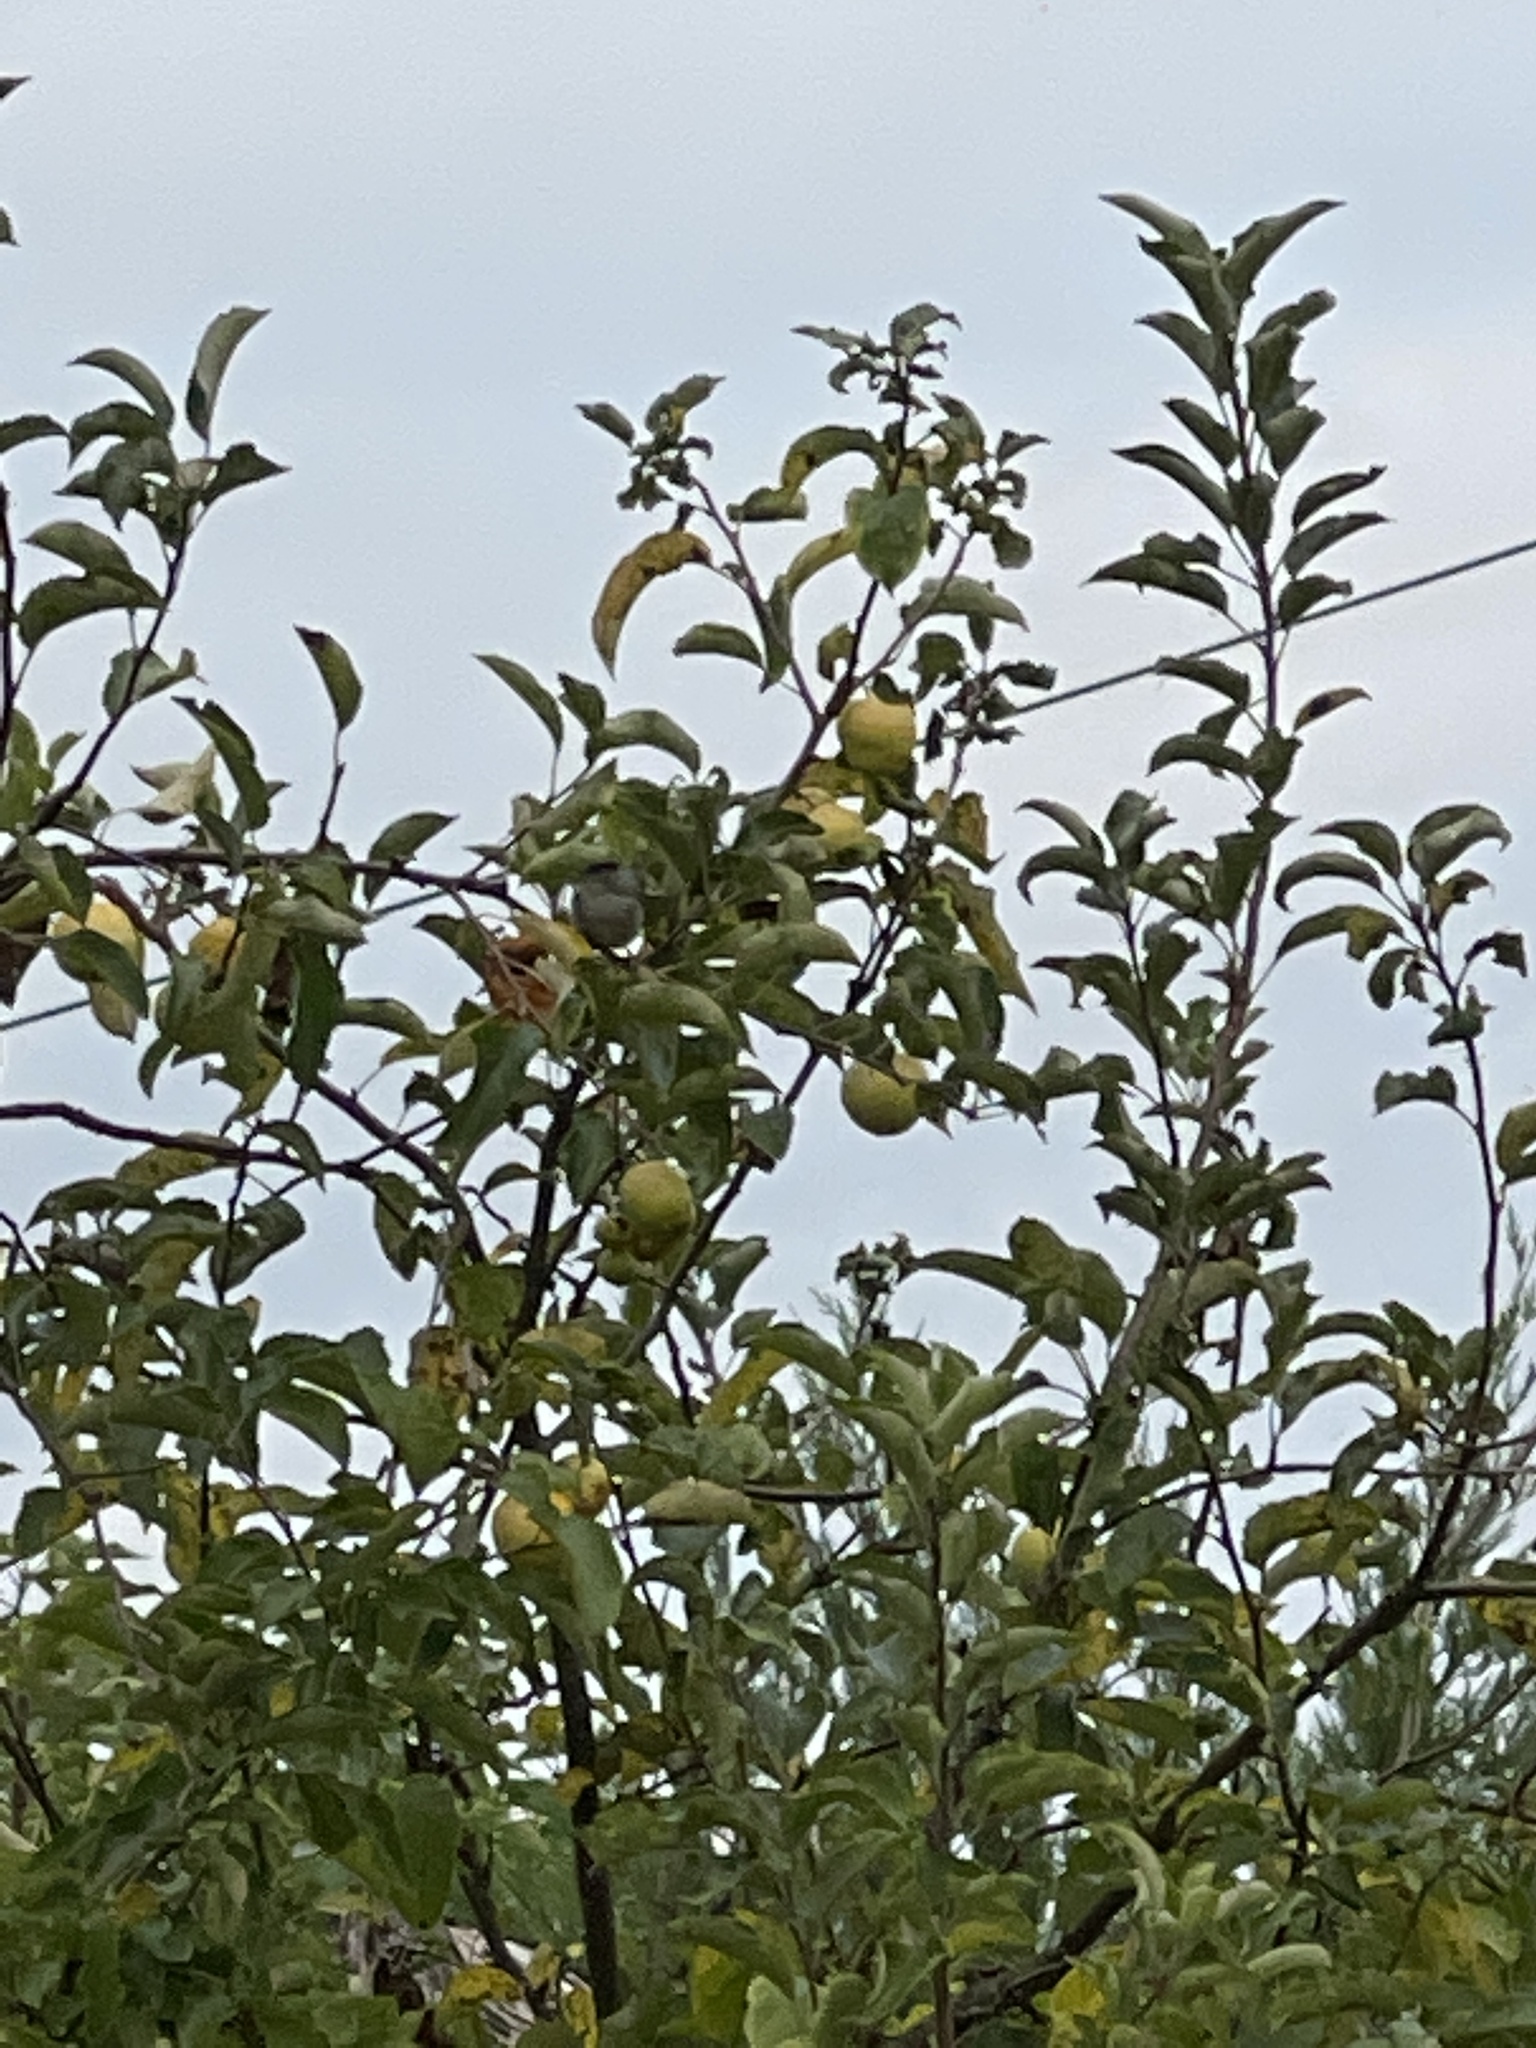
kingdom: Animalia
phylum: Chordata
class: Aves
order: Passeriformes
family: Sylviidae
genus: Sylvia
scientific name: Sylvia atricapilla
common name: Eurasian blackcap
